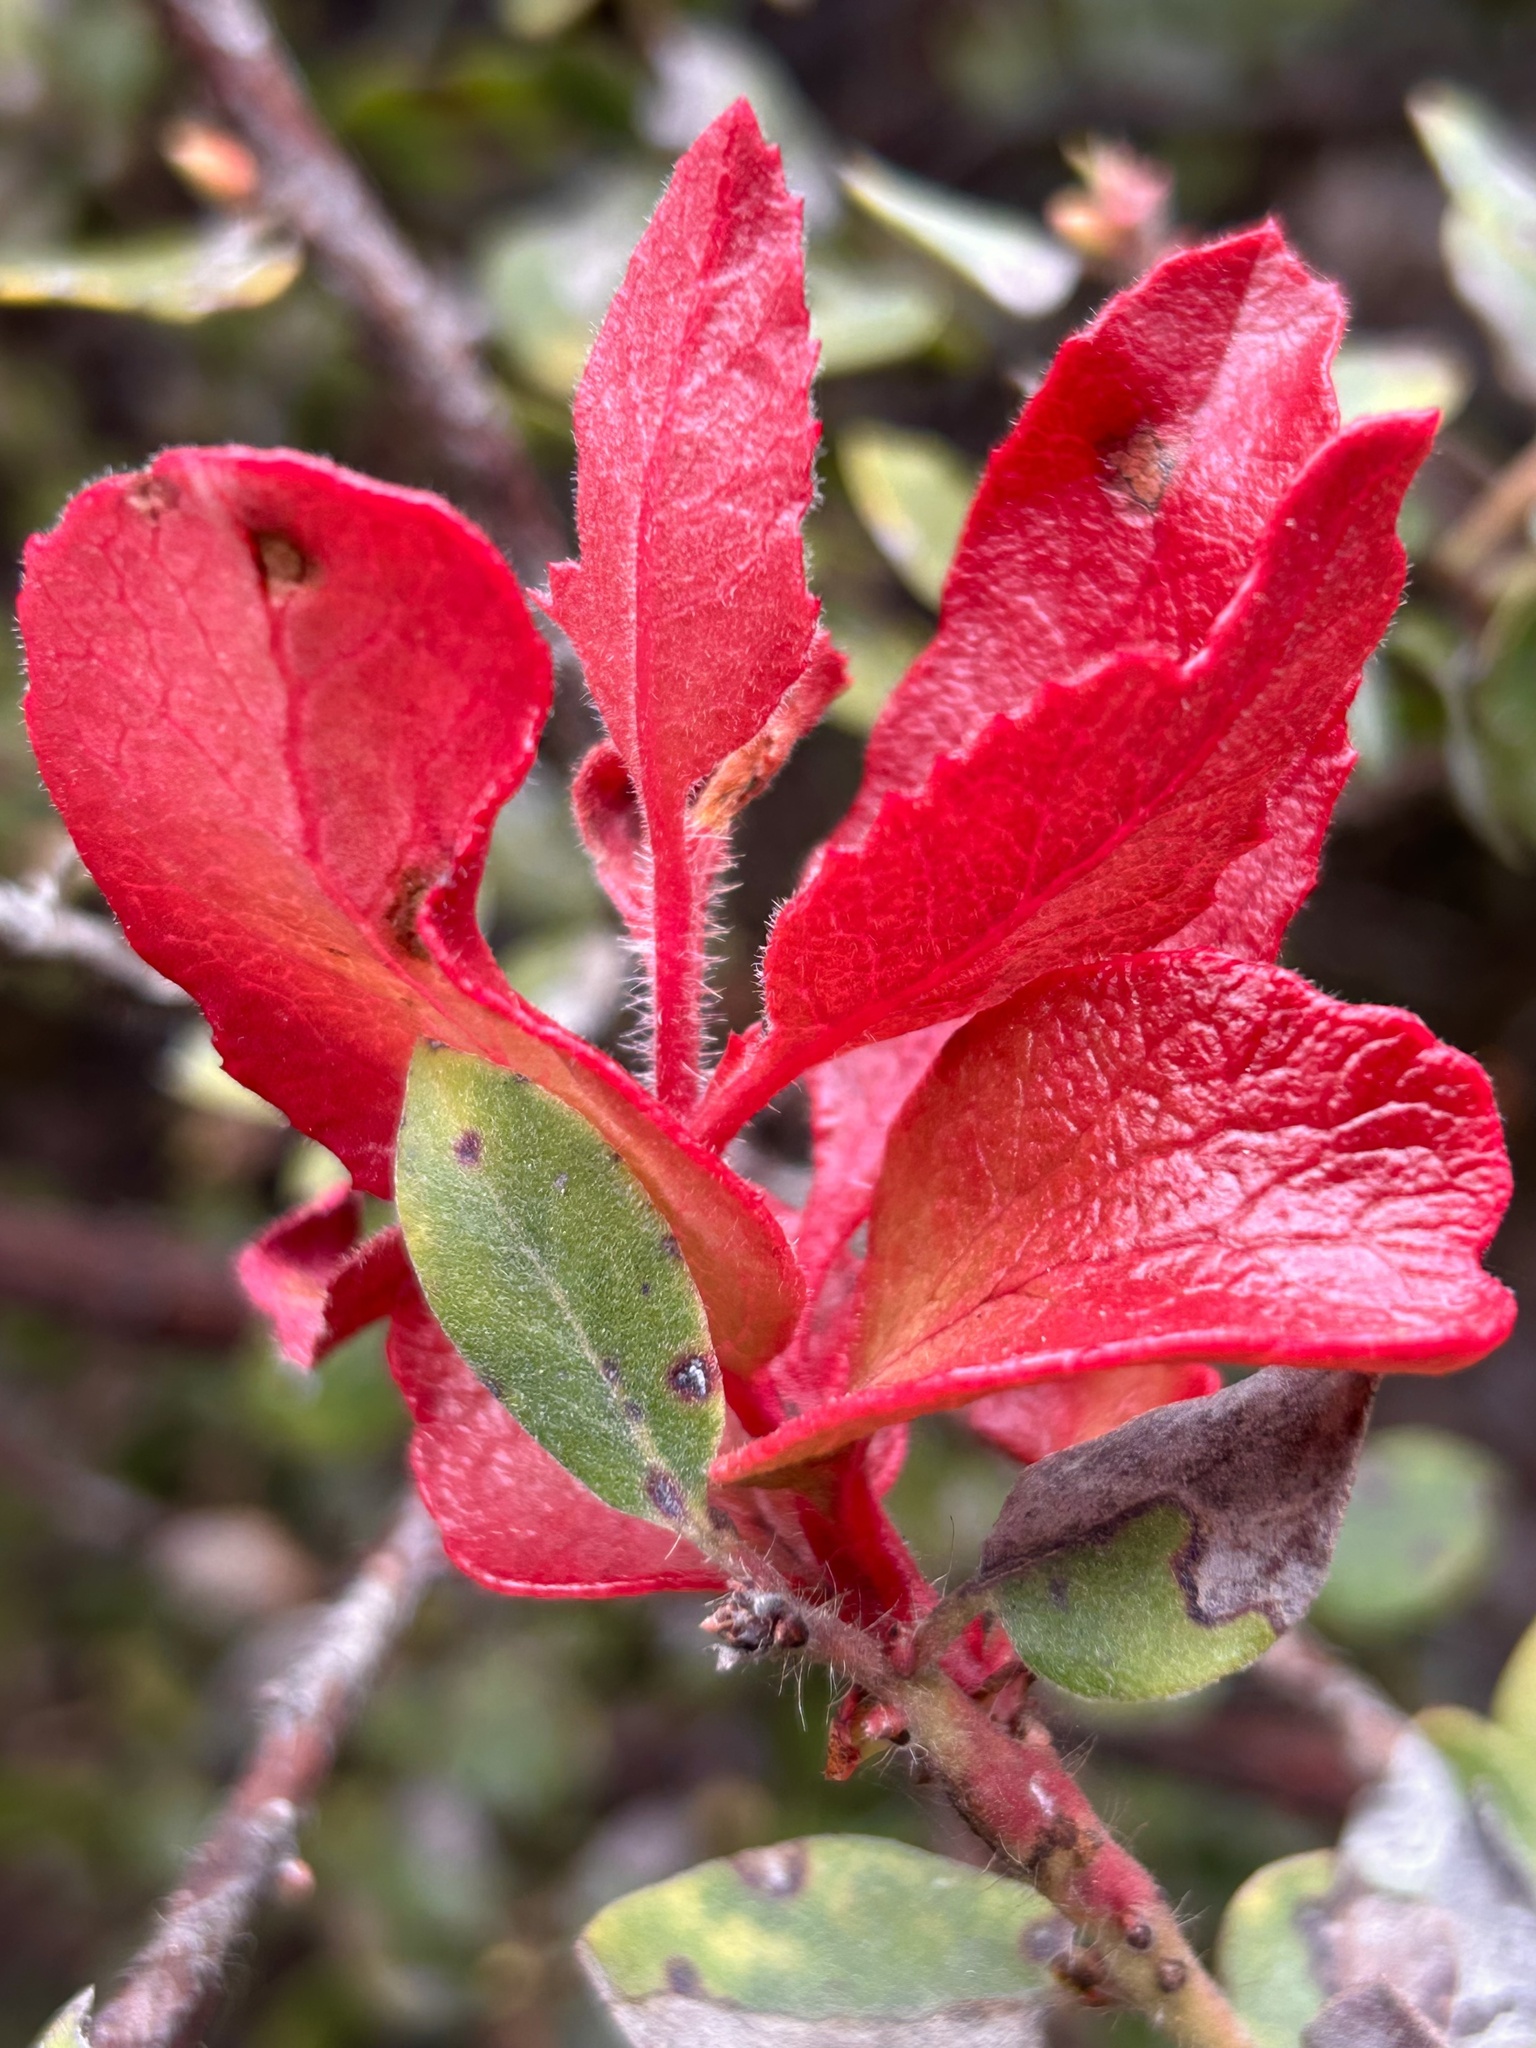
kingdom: Fungi
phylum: Basidiomycota
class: Exobasidiomycetes
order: Exobasidiales
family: Exobasidiaceae
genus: Exobasidium
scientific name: Exobasidium arctostaphyli
